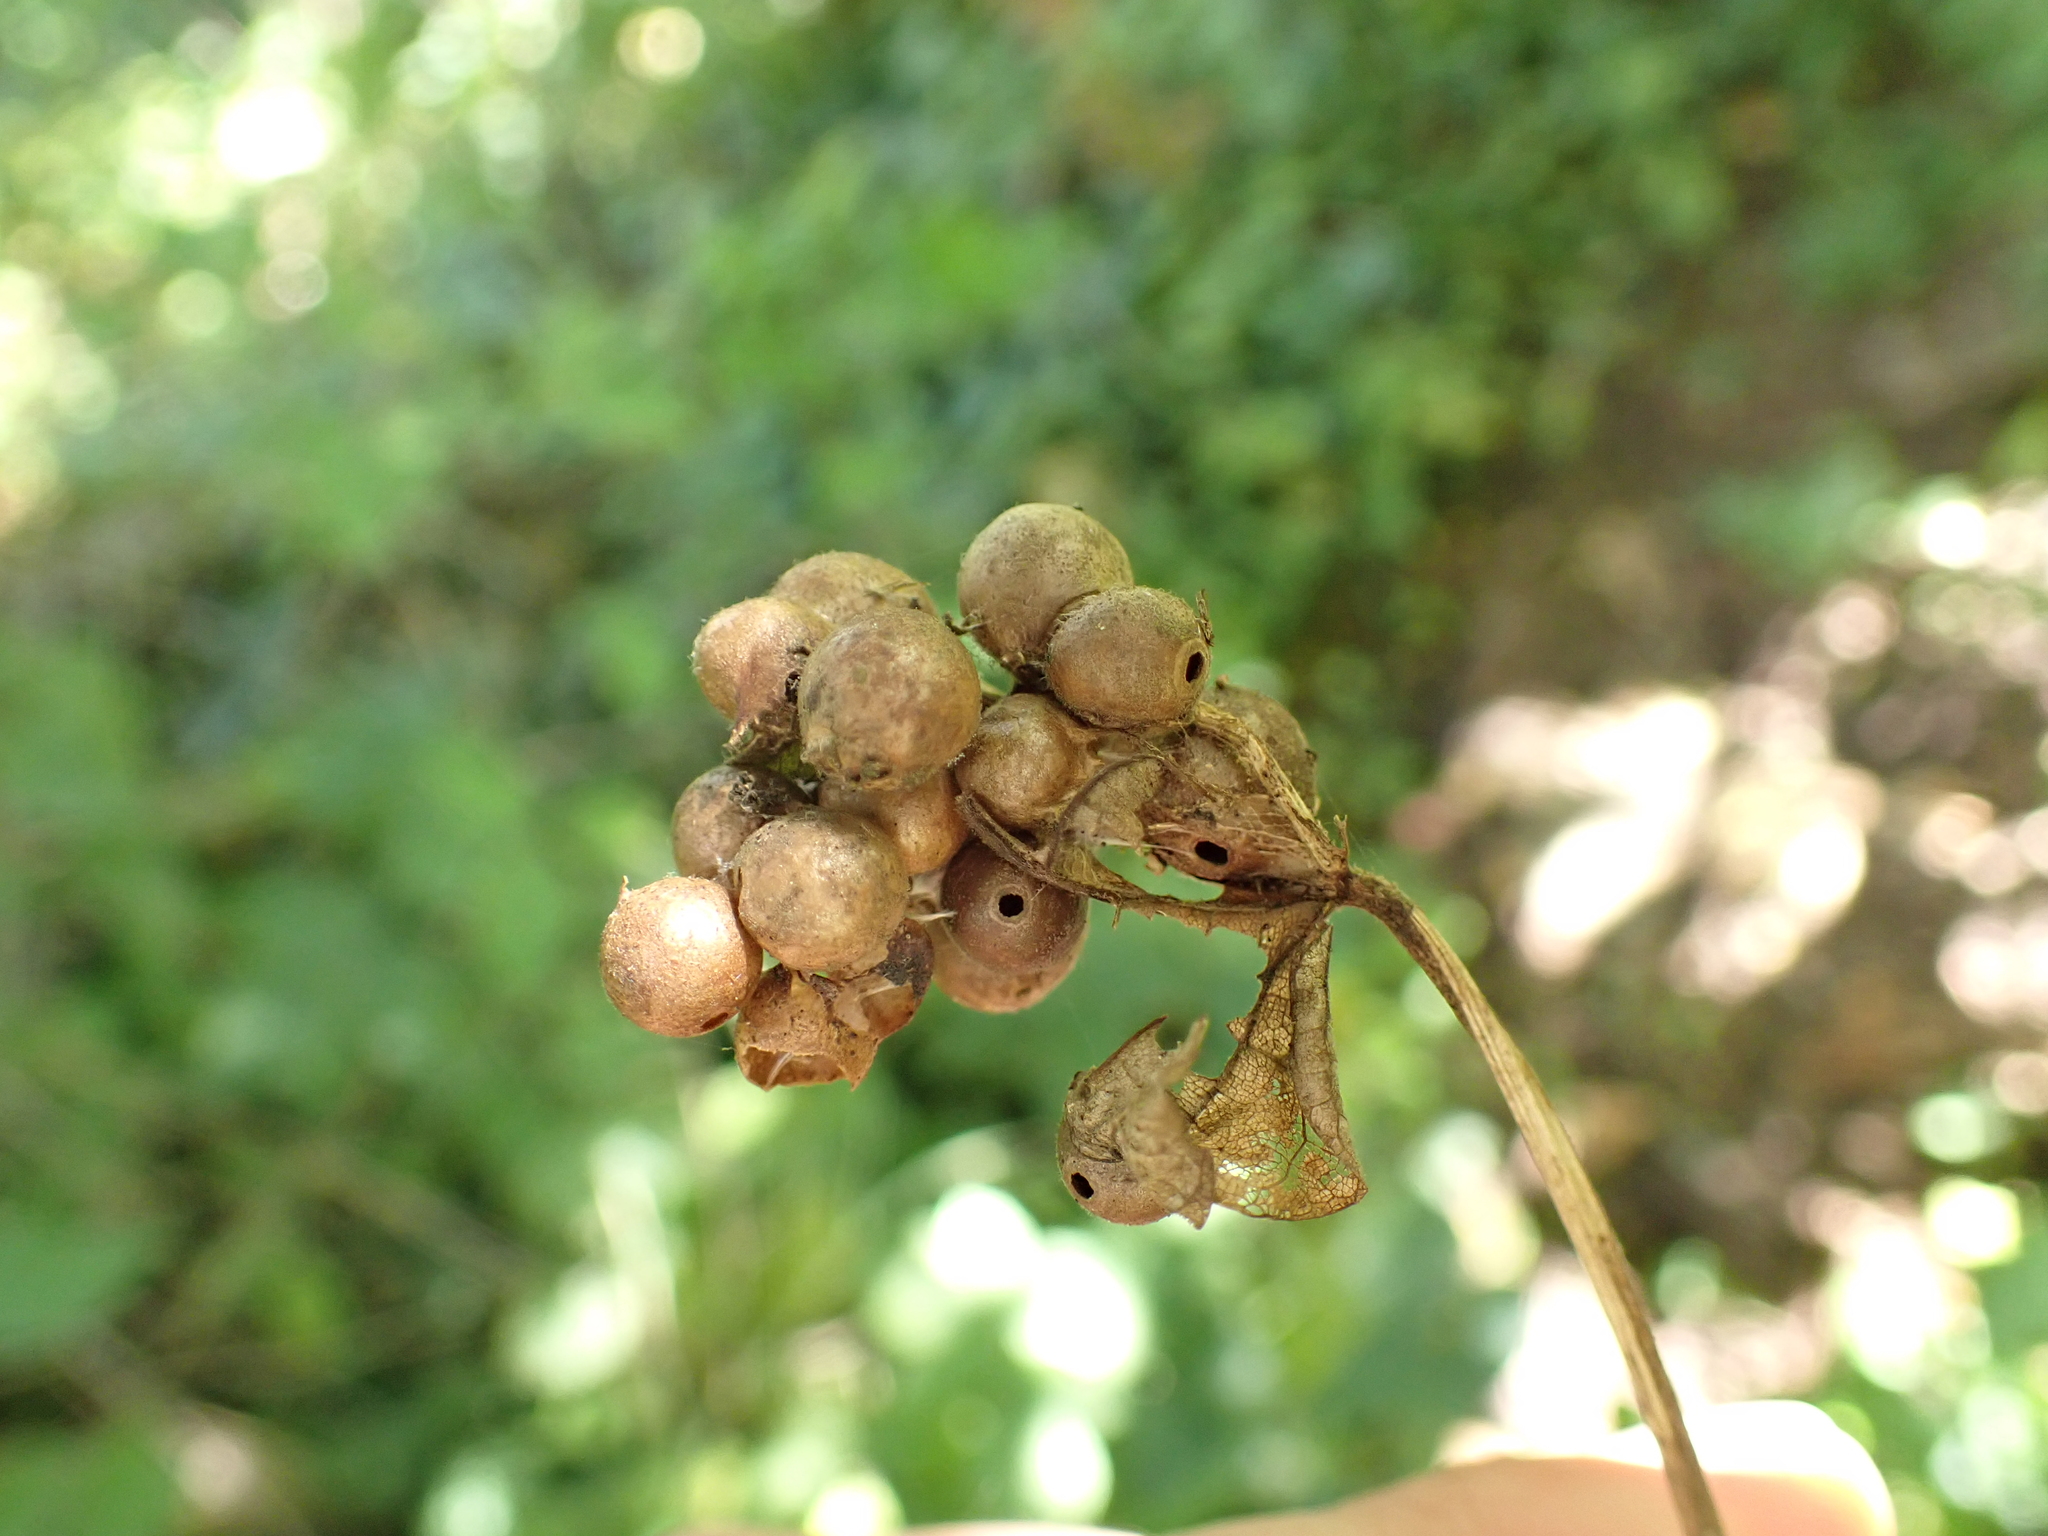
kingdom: Animalia
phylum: Arthropoda
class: Insecta
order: Hymenoptera
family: Cynipidae
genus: Pediaspis
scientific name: Pediaspis aceris
